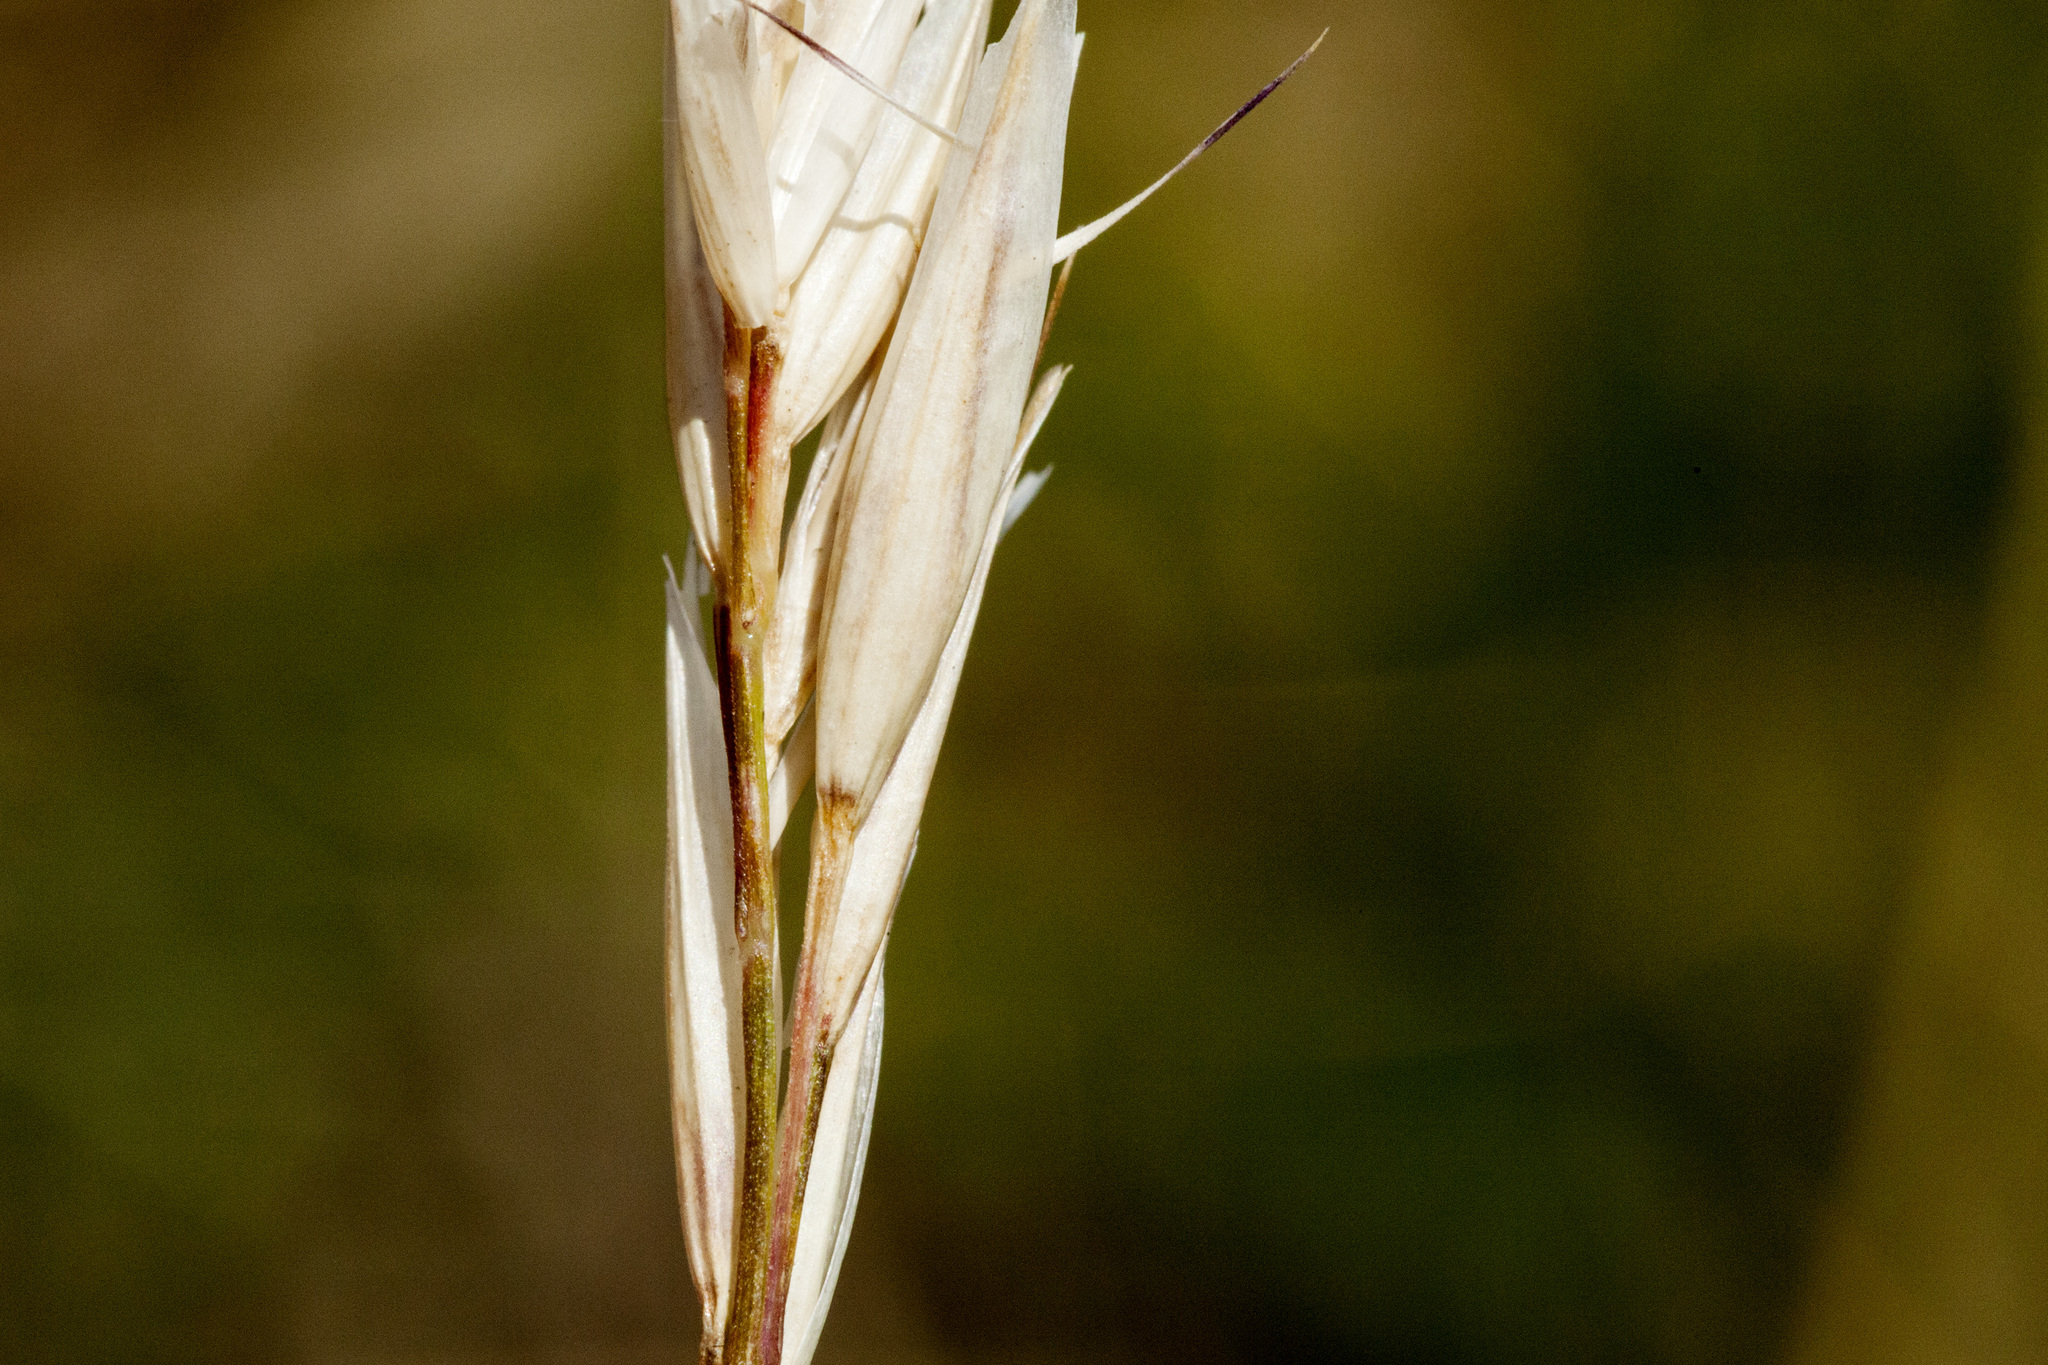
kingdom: Plantae
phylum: Tracheophyta
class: Liliopsida
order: Poales
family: Poaceae
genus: Danthonia
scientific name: Danthonia intermedia
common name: Intermediate oat grass
